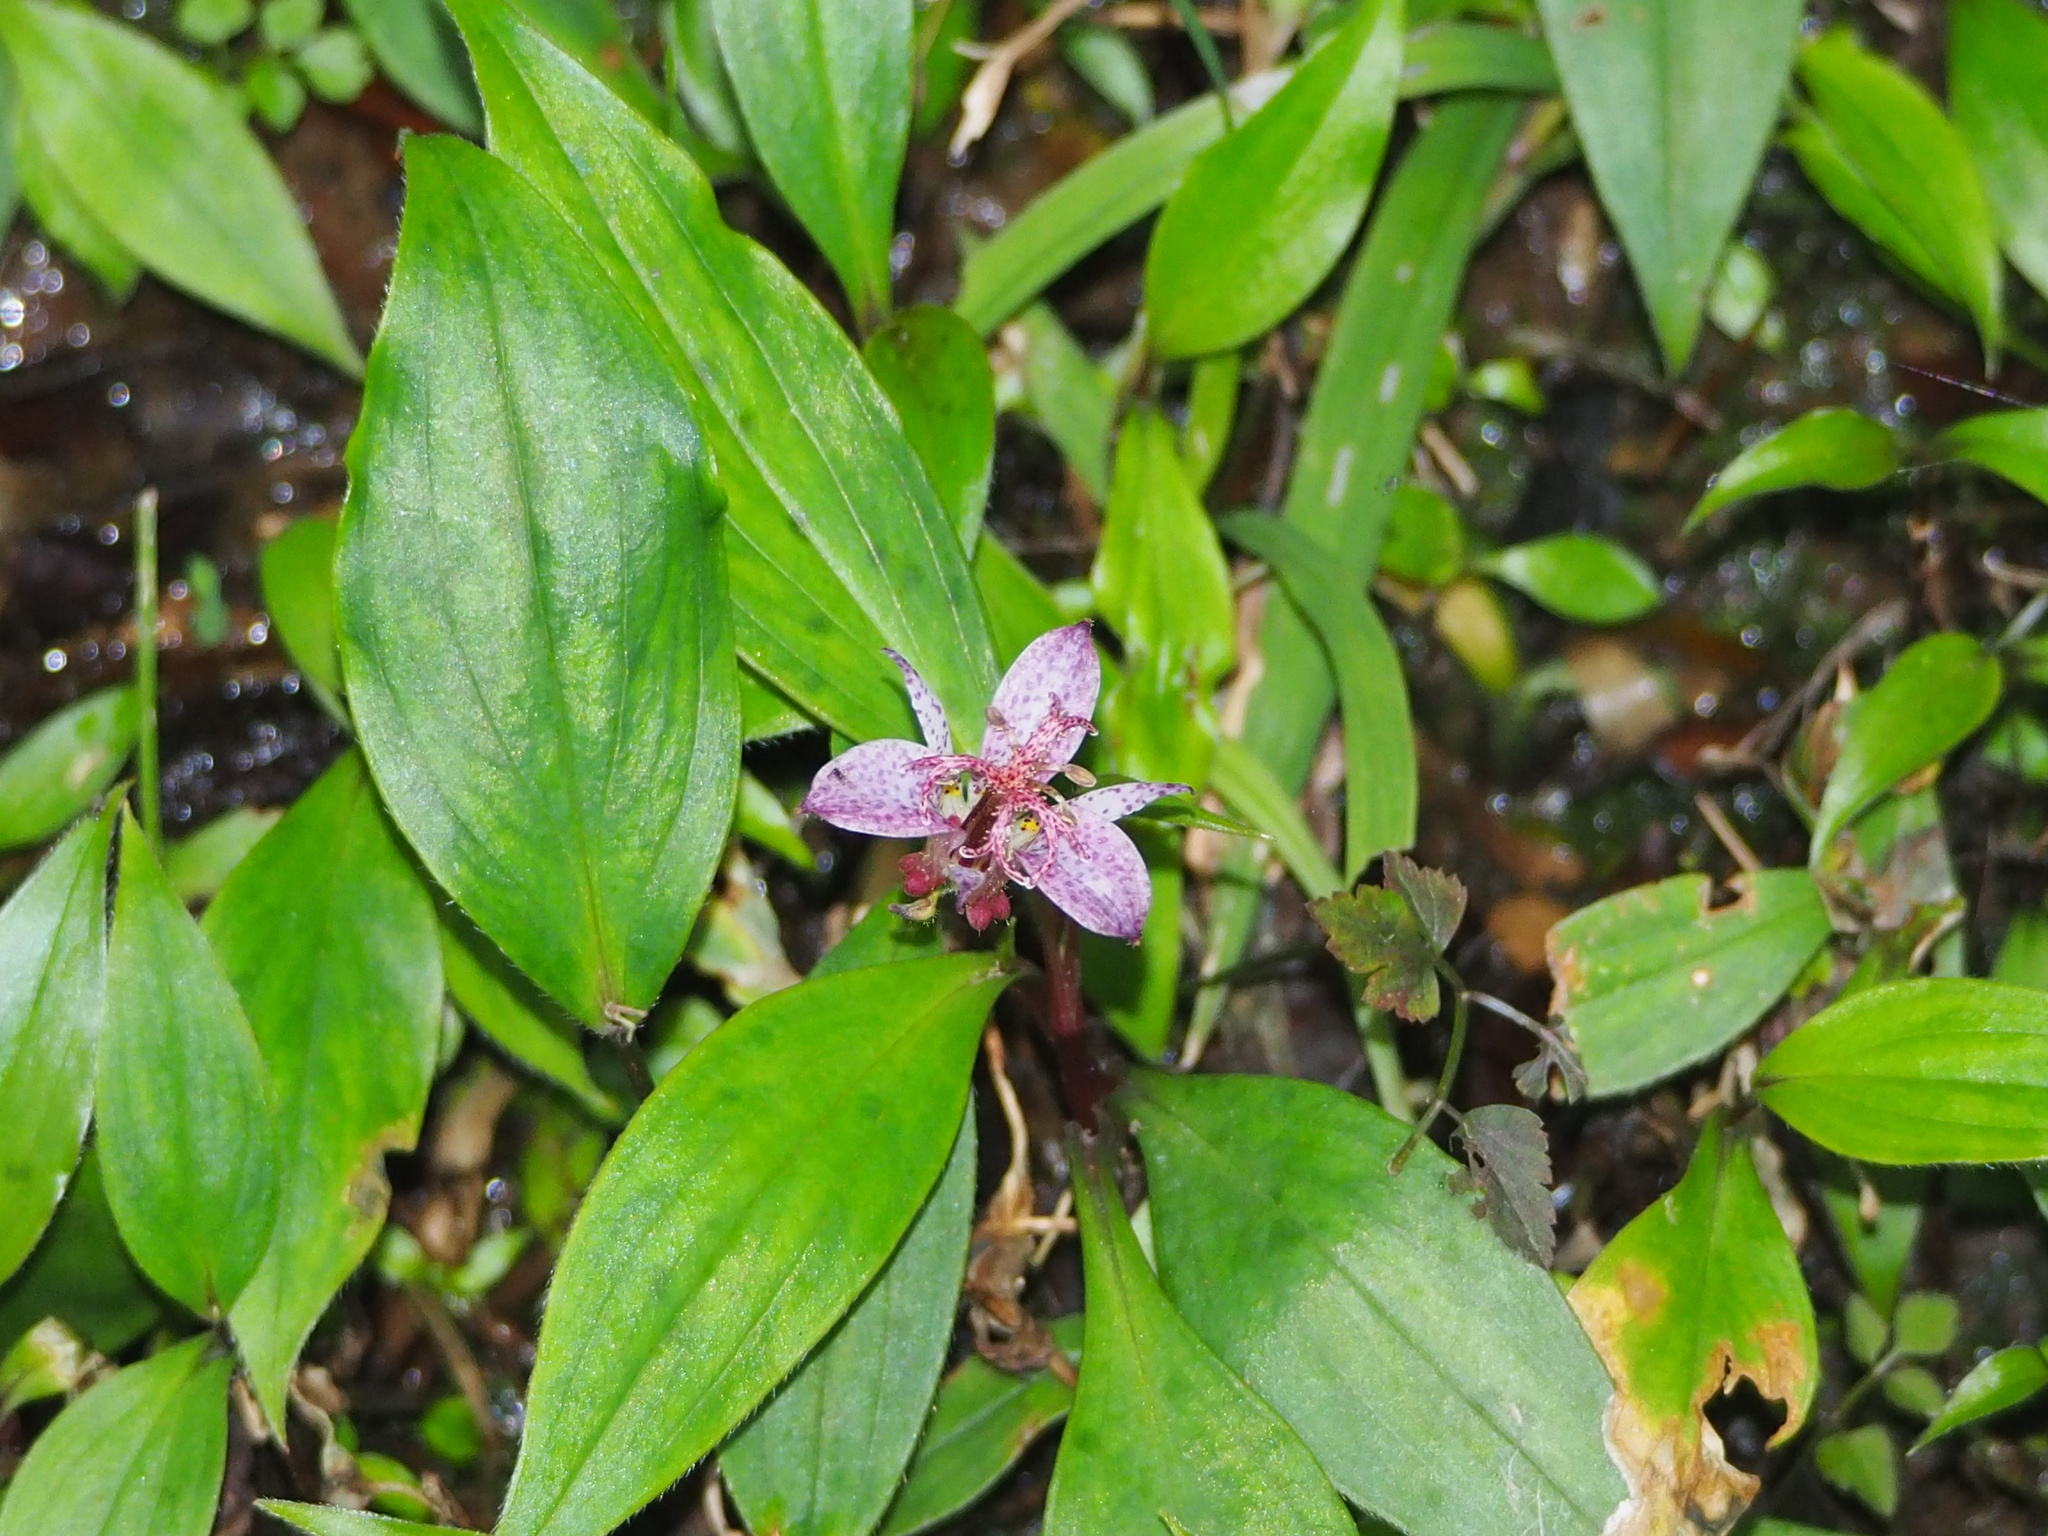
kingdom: Plantae
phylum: Tracheophyta
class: Liliopsida
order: Liliales
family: Liliaceae
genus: Tricyrtis
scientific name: Tricyrtis formosana
